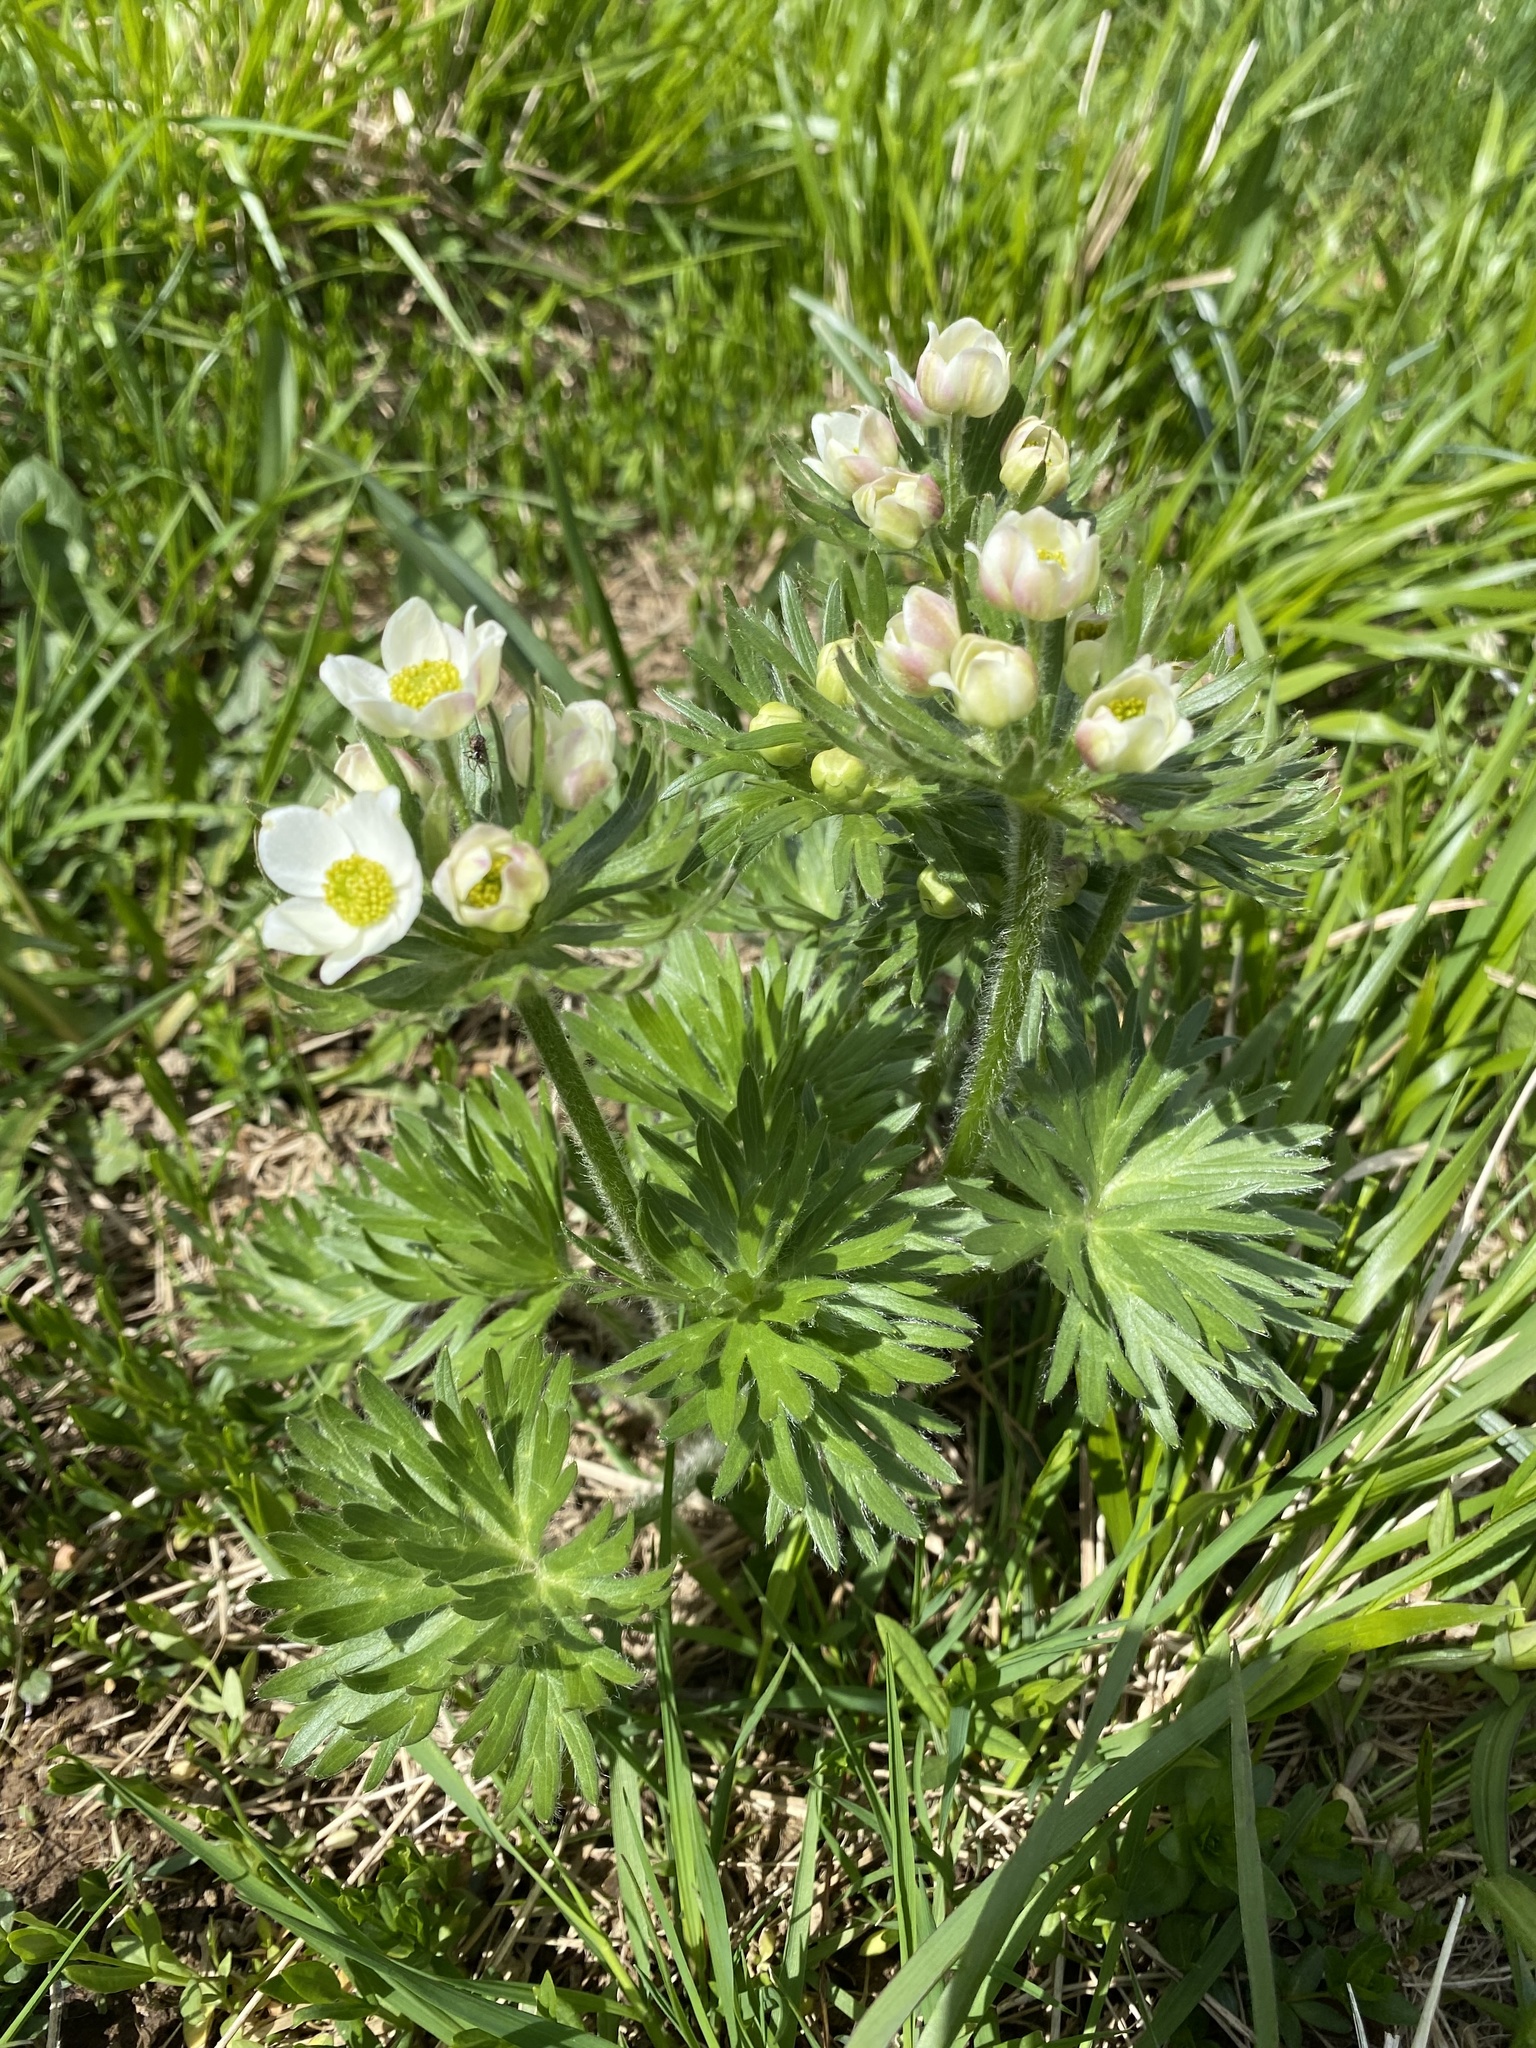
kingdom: Plantae
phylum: Tracheophyta
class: Magnoliopsida
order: Ranunculales
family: Ranunculaceae
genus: Pulsatilla
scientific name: Pulsatilla alpina
